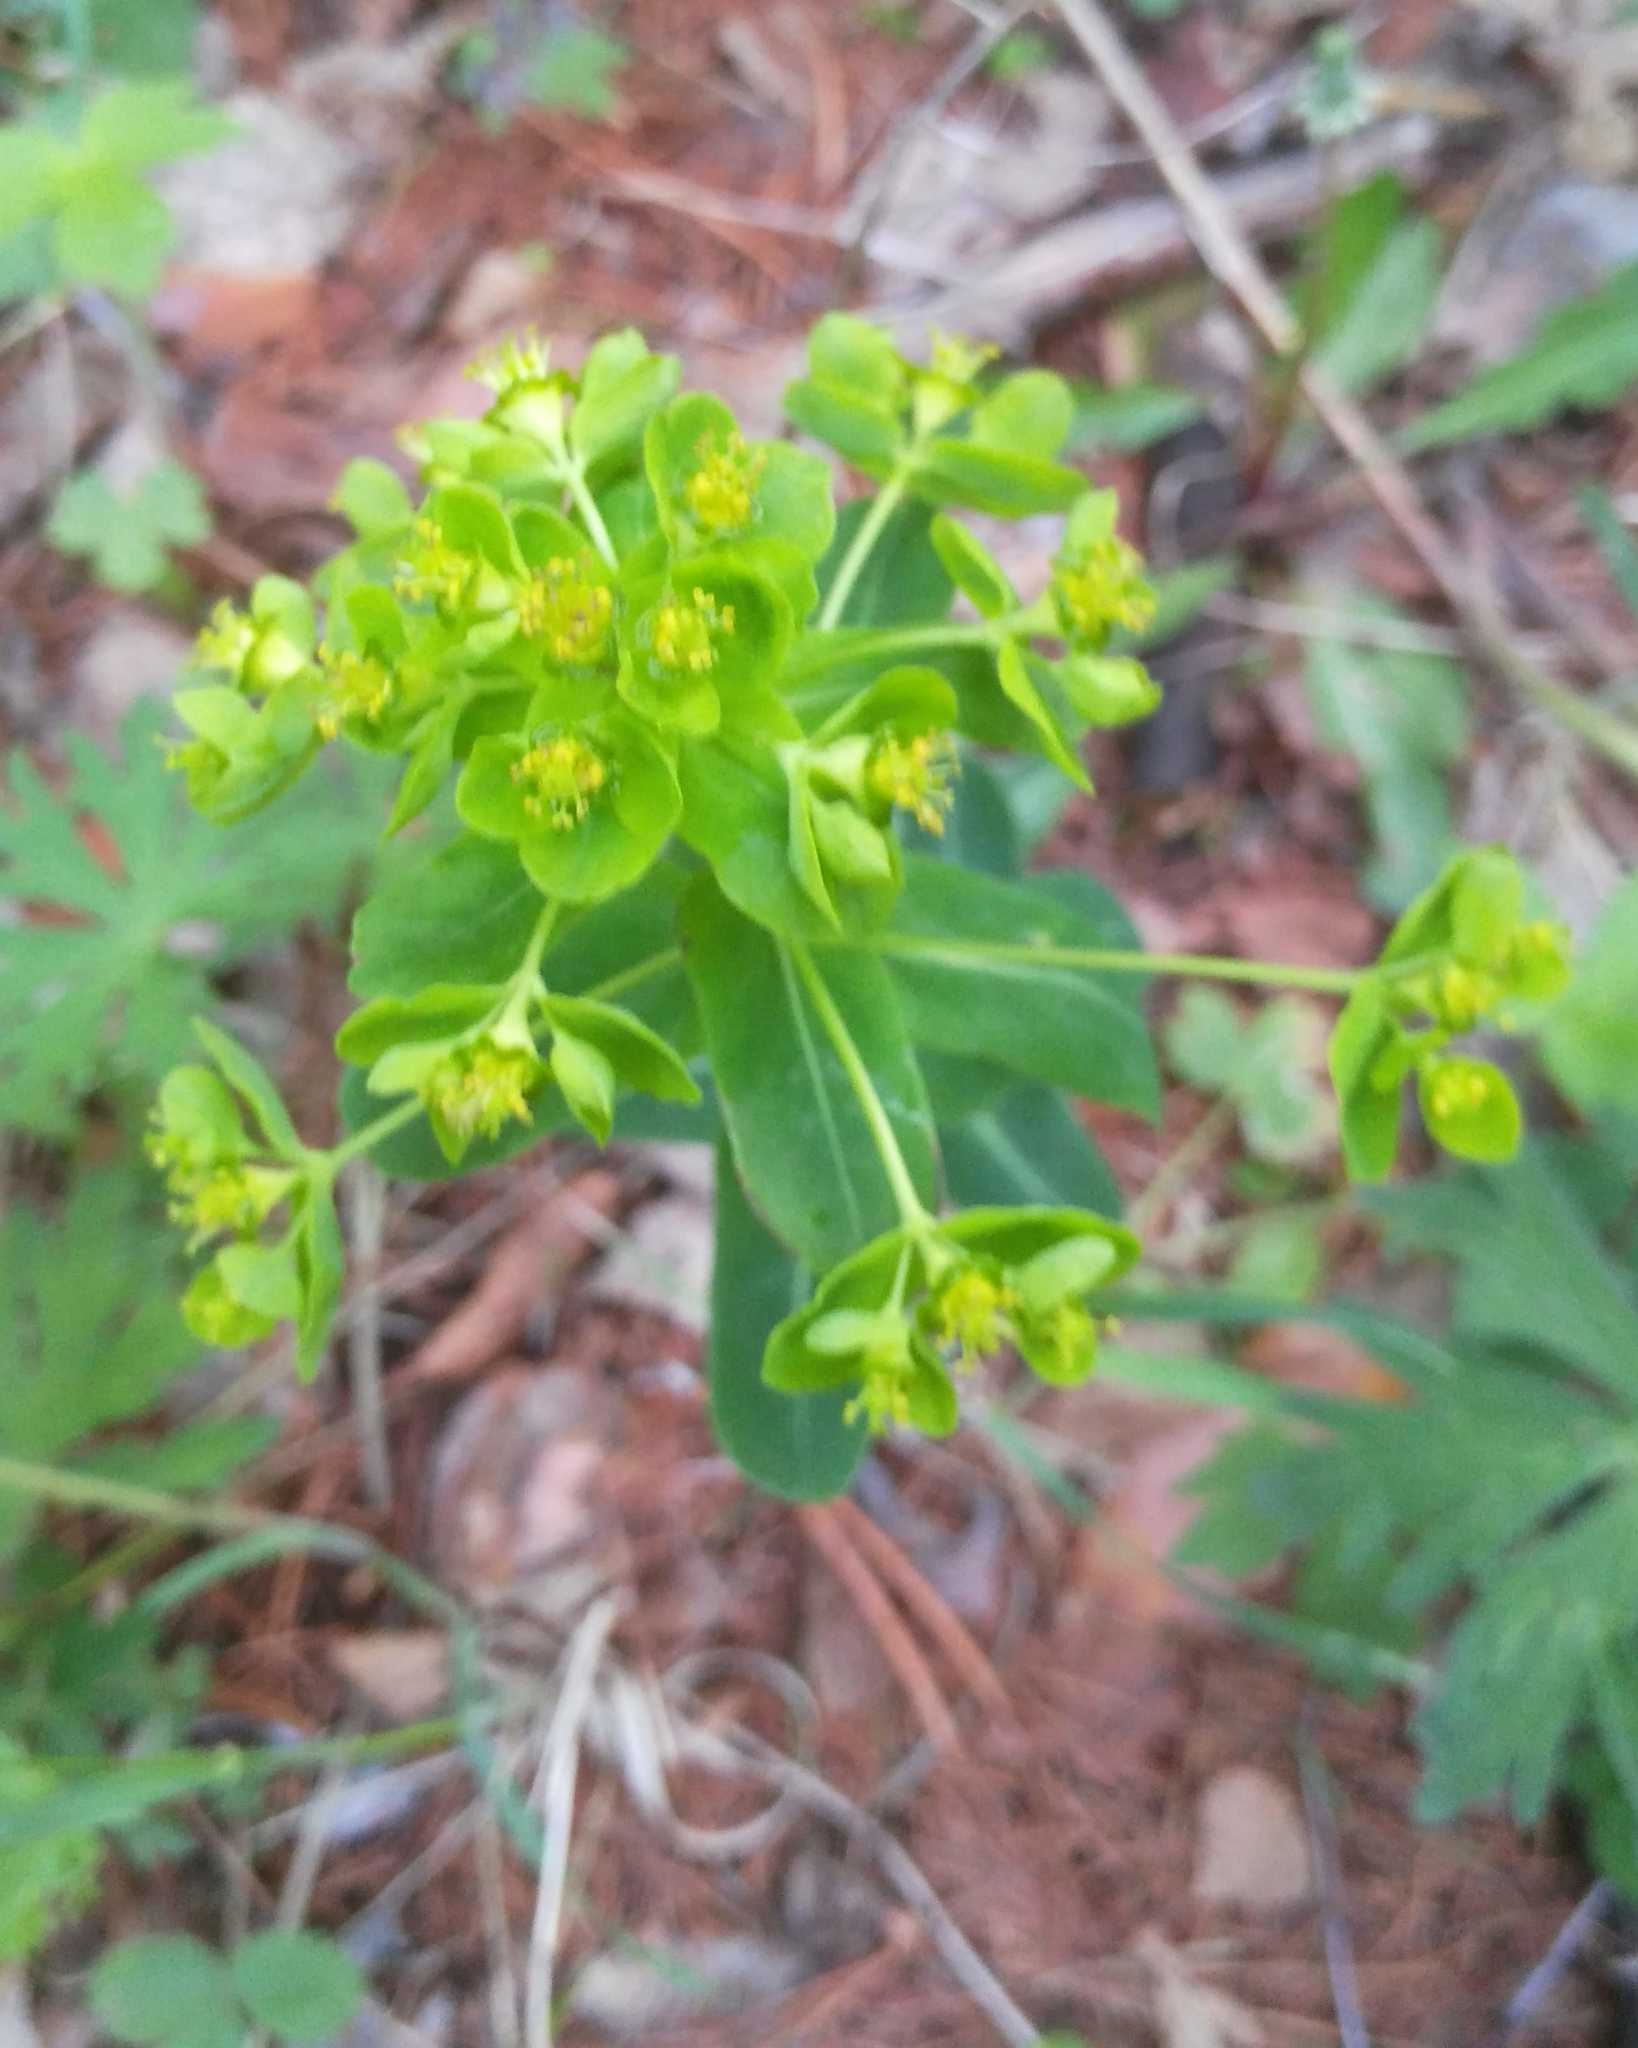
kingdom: Plantae
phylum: Tracheophyta
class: Magnoliopsida
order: Malpighiales
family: Euphorbiaceae
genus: Euphorbia
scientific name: Euphorbia jenisseiensis
